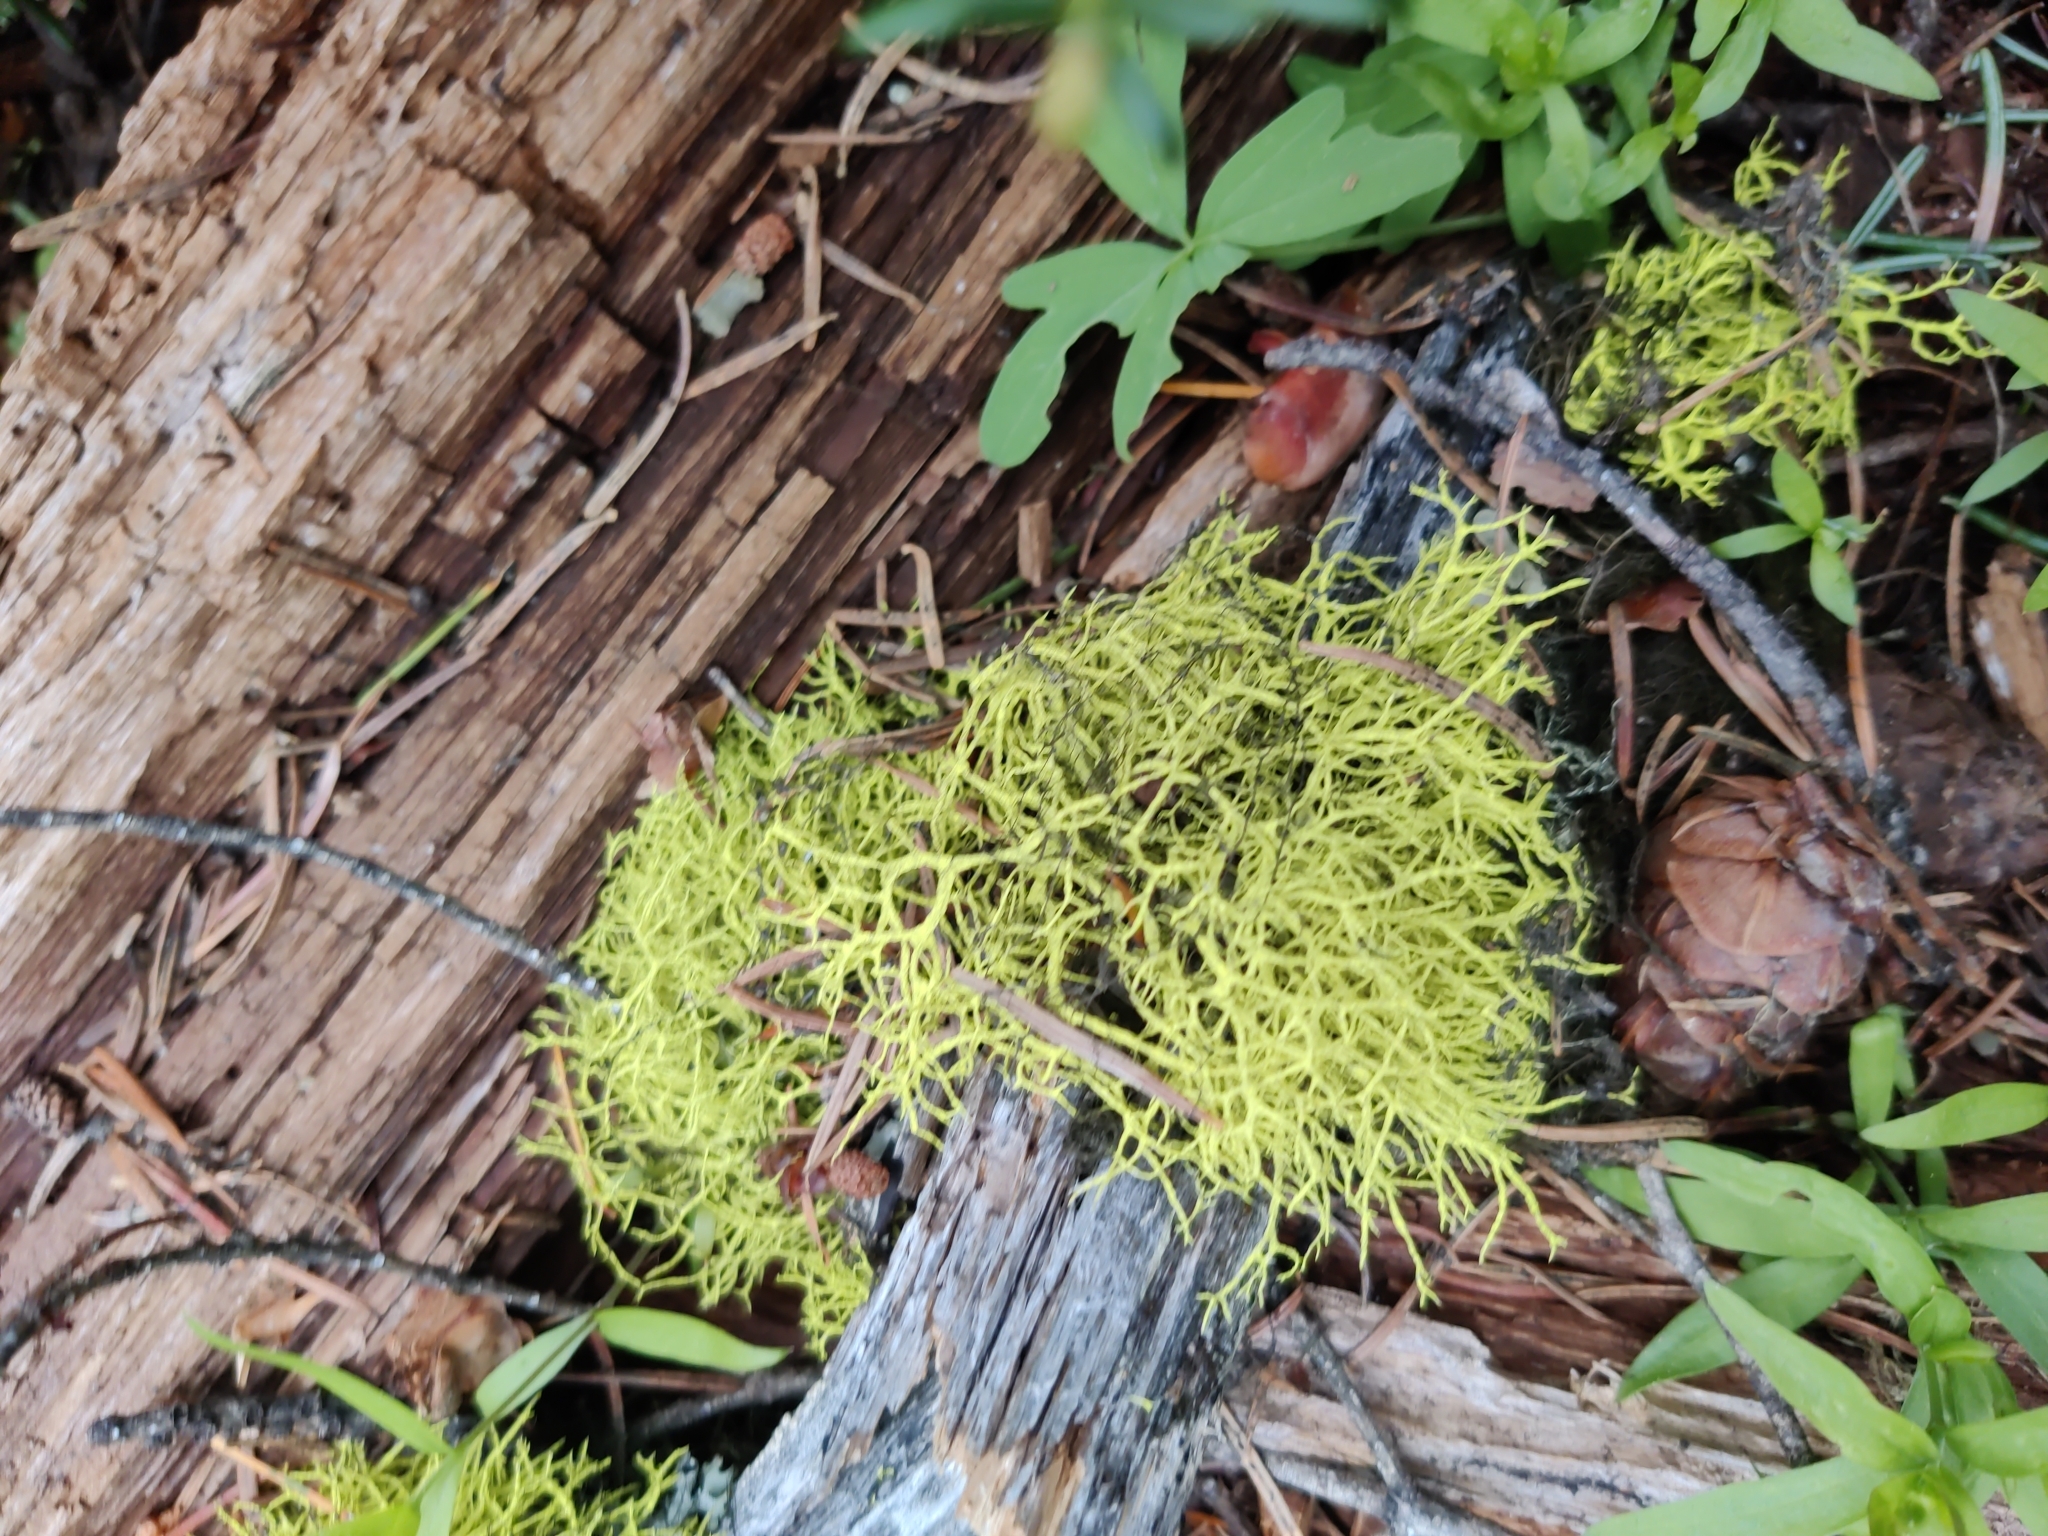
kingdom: Fungi
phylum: Ascomycota
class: Lecanoromycetes
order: Lecanorales
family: Parmeliaceae
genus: Letharia
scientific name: Letharia vulpina
